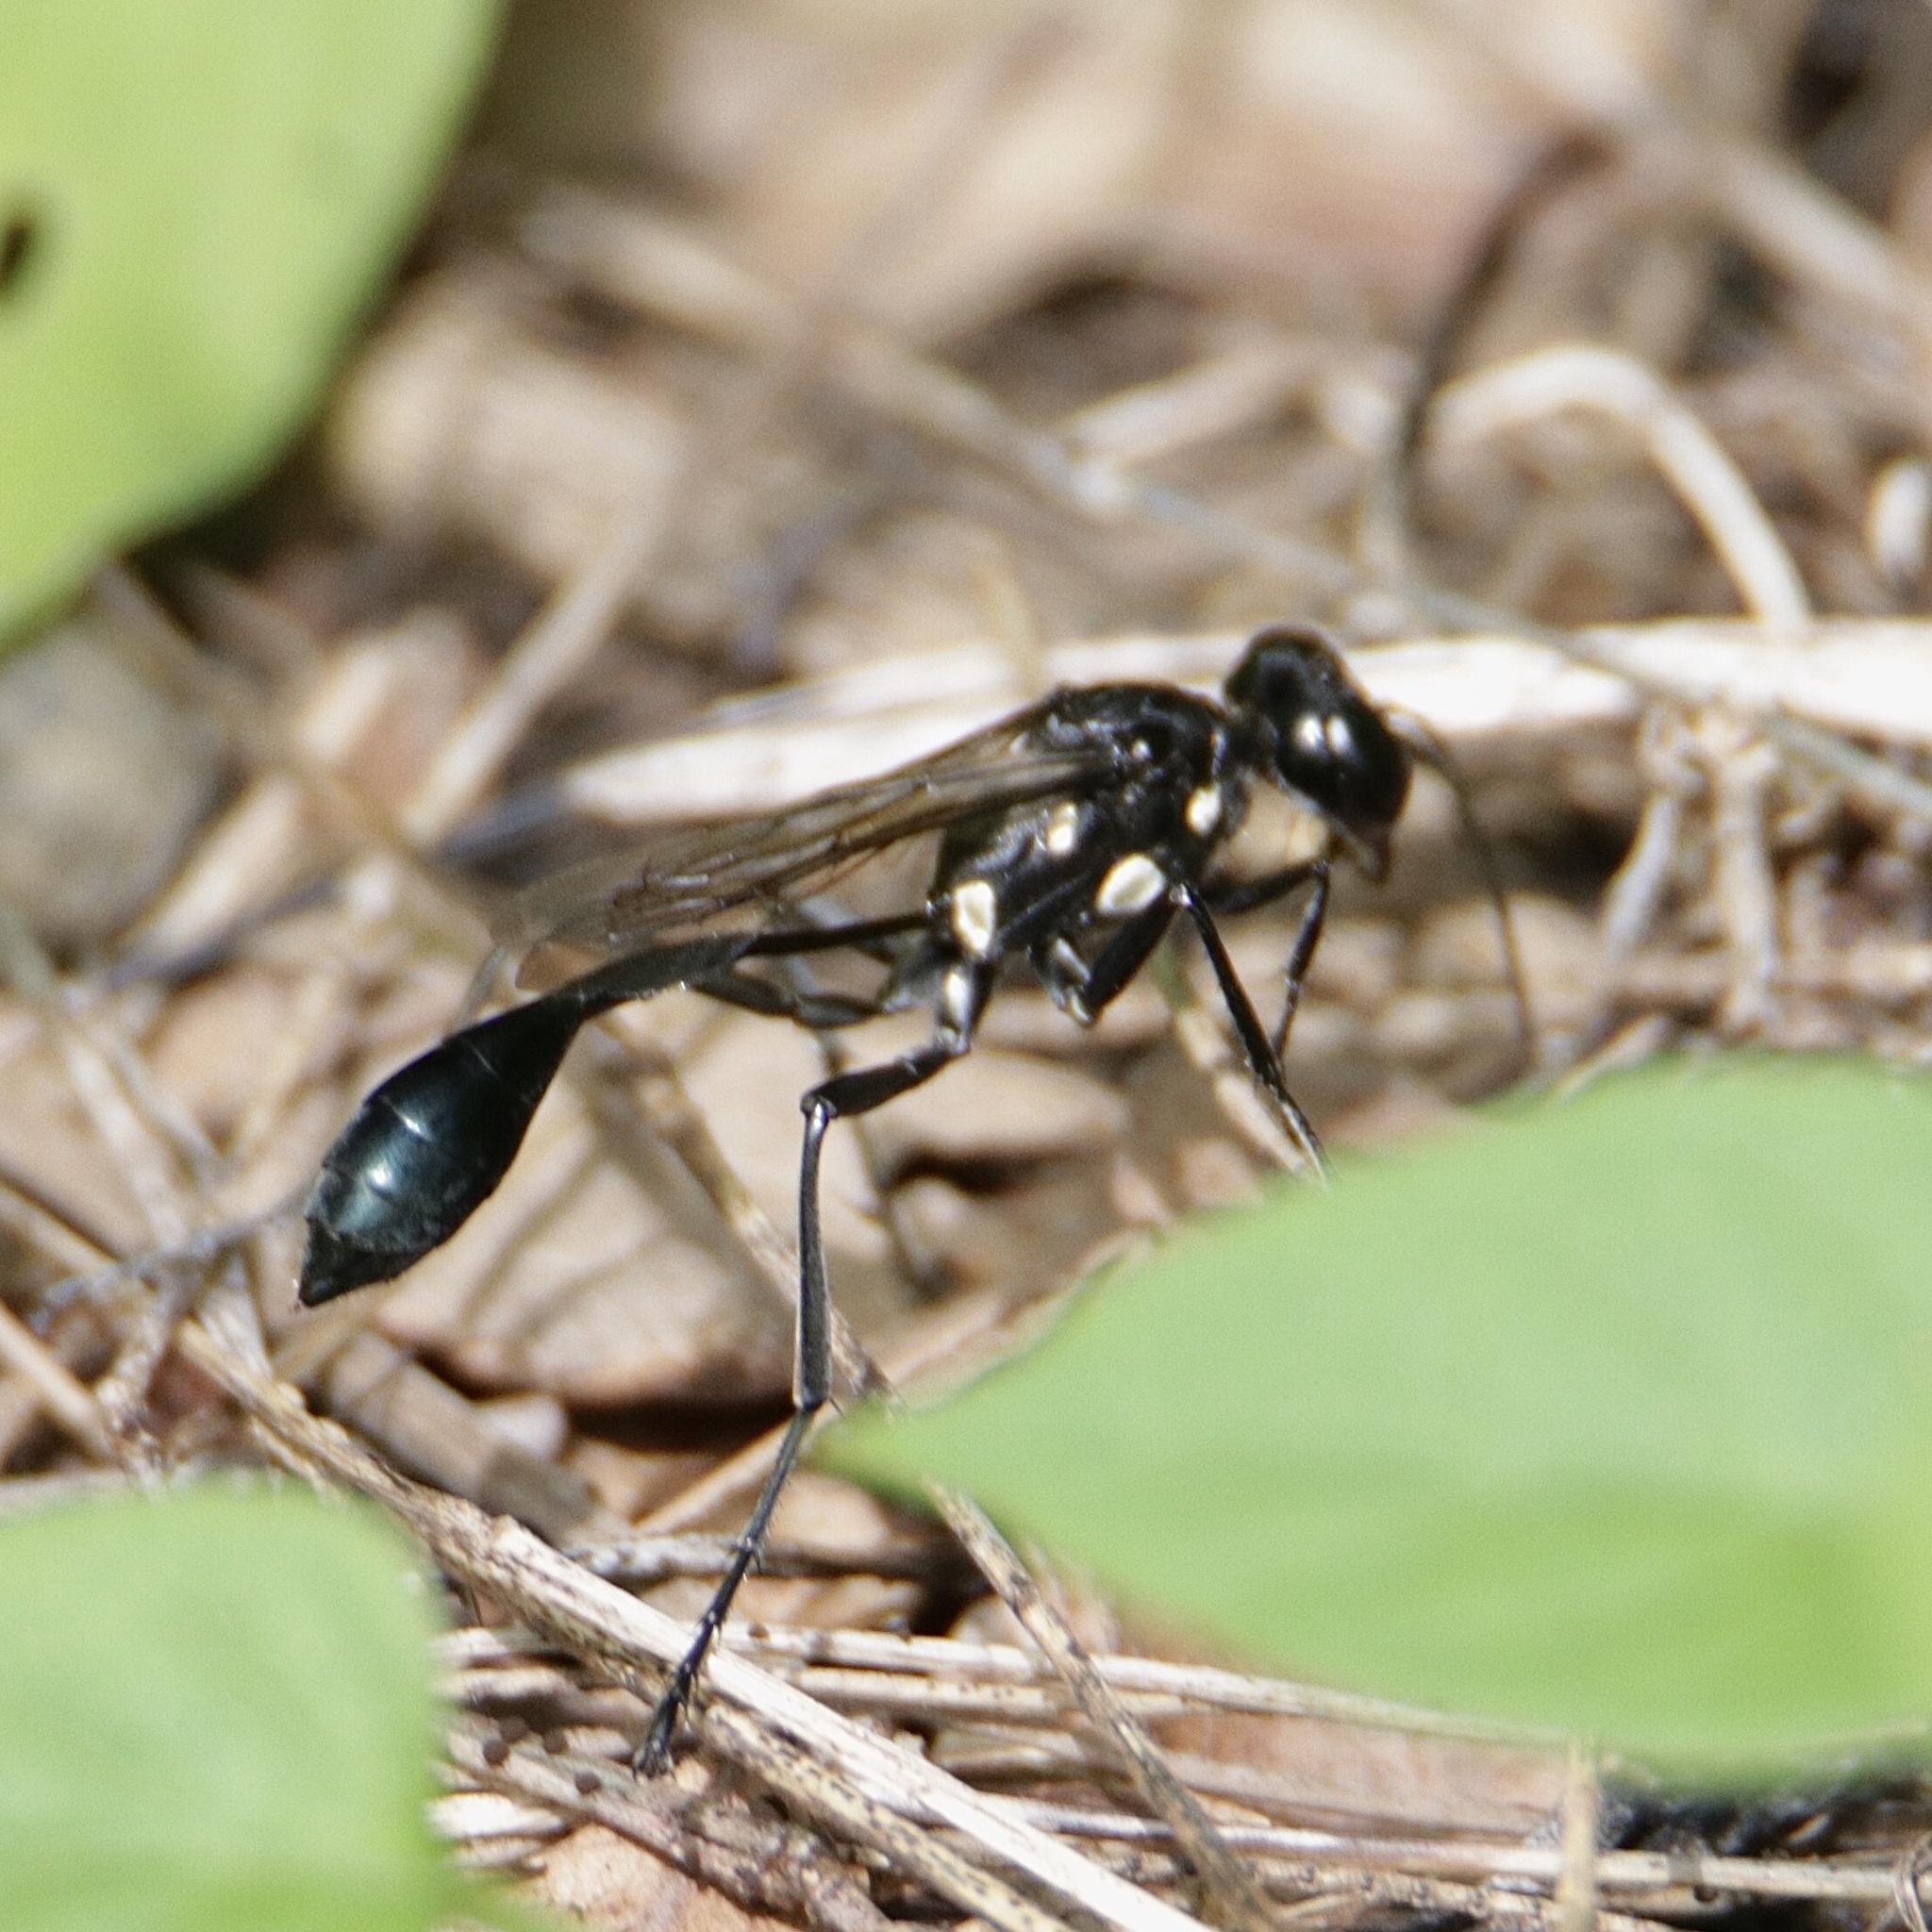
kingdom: Animalia
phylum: Arthropoda
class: Insecta
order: Hymenoptera
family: Sphecidae
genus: Eremnophila
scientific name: Eremnophila
